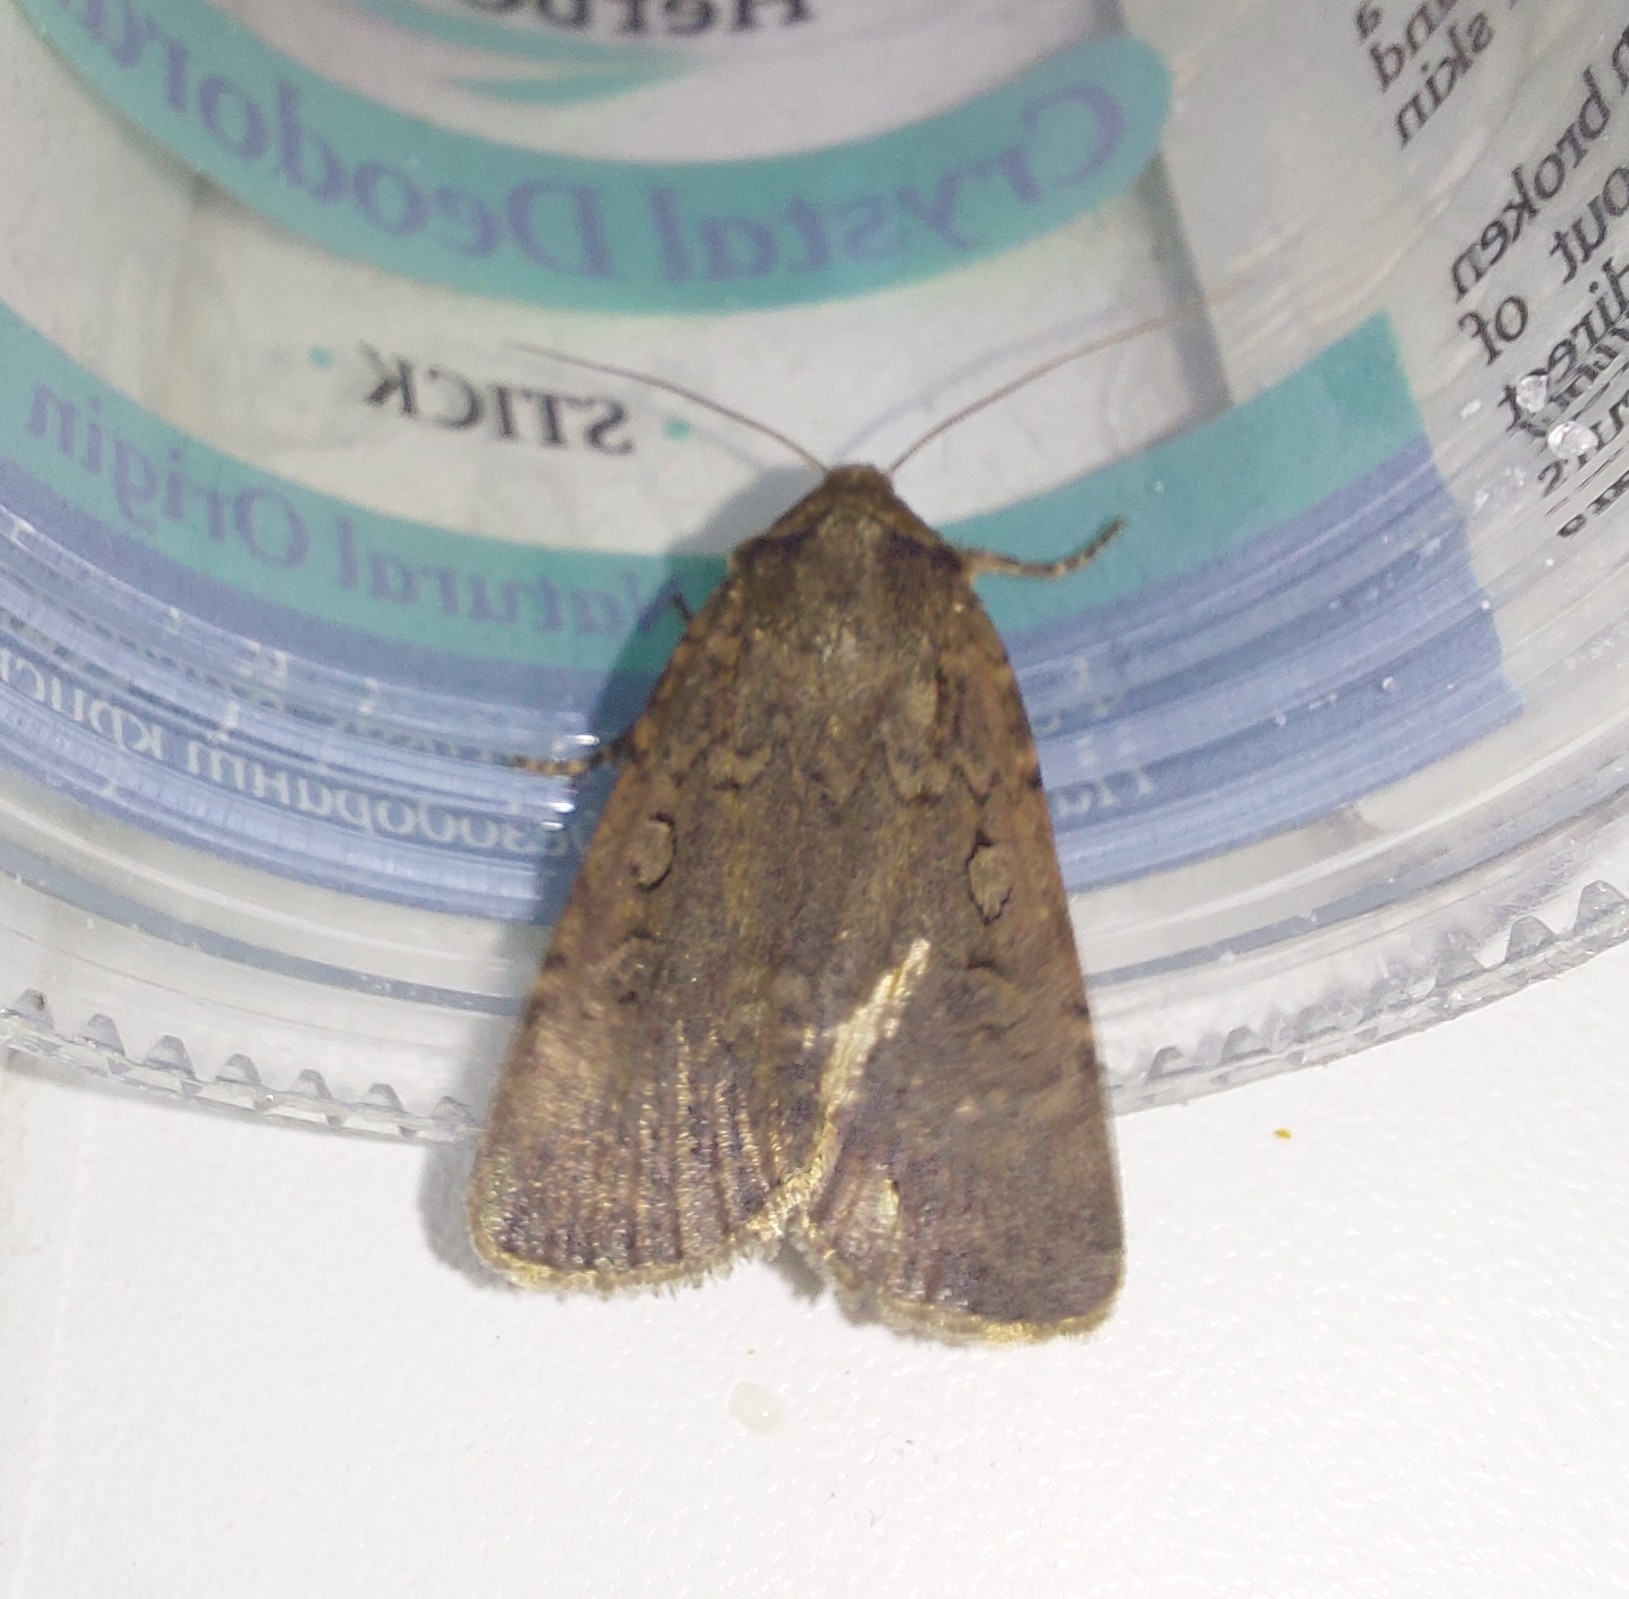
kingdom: Animalia
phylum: Arthropoda
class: Insecta
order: Lepidoptera
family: Noctuidae
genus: Spaelotis
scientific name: Spaelotis ravida
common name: Stout dart
